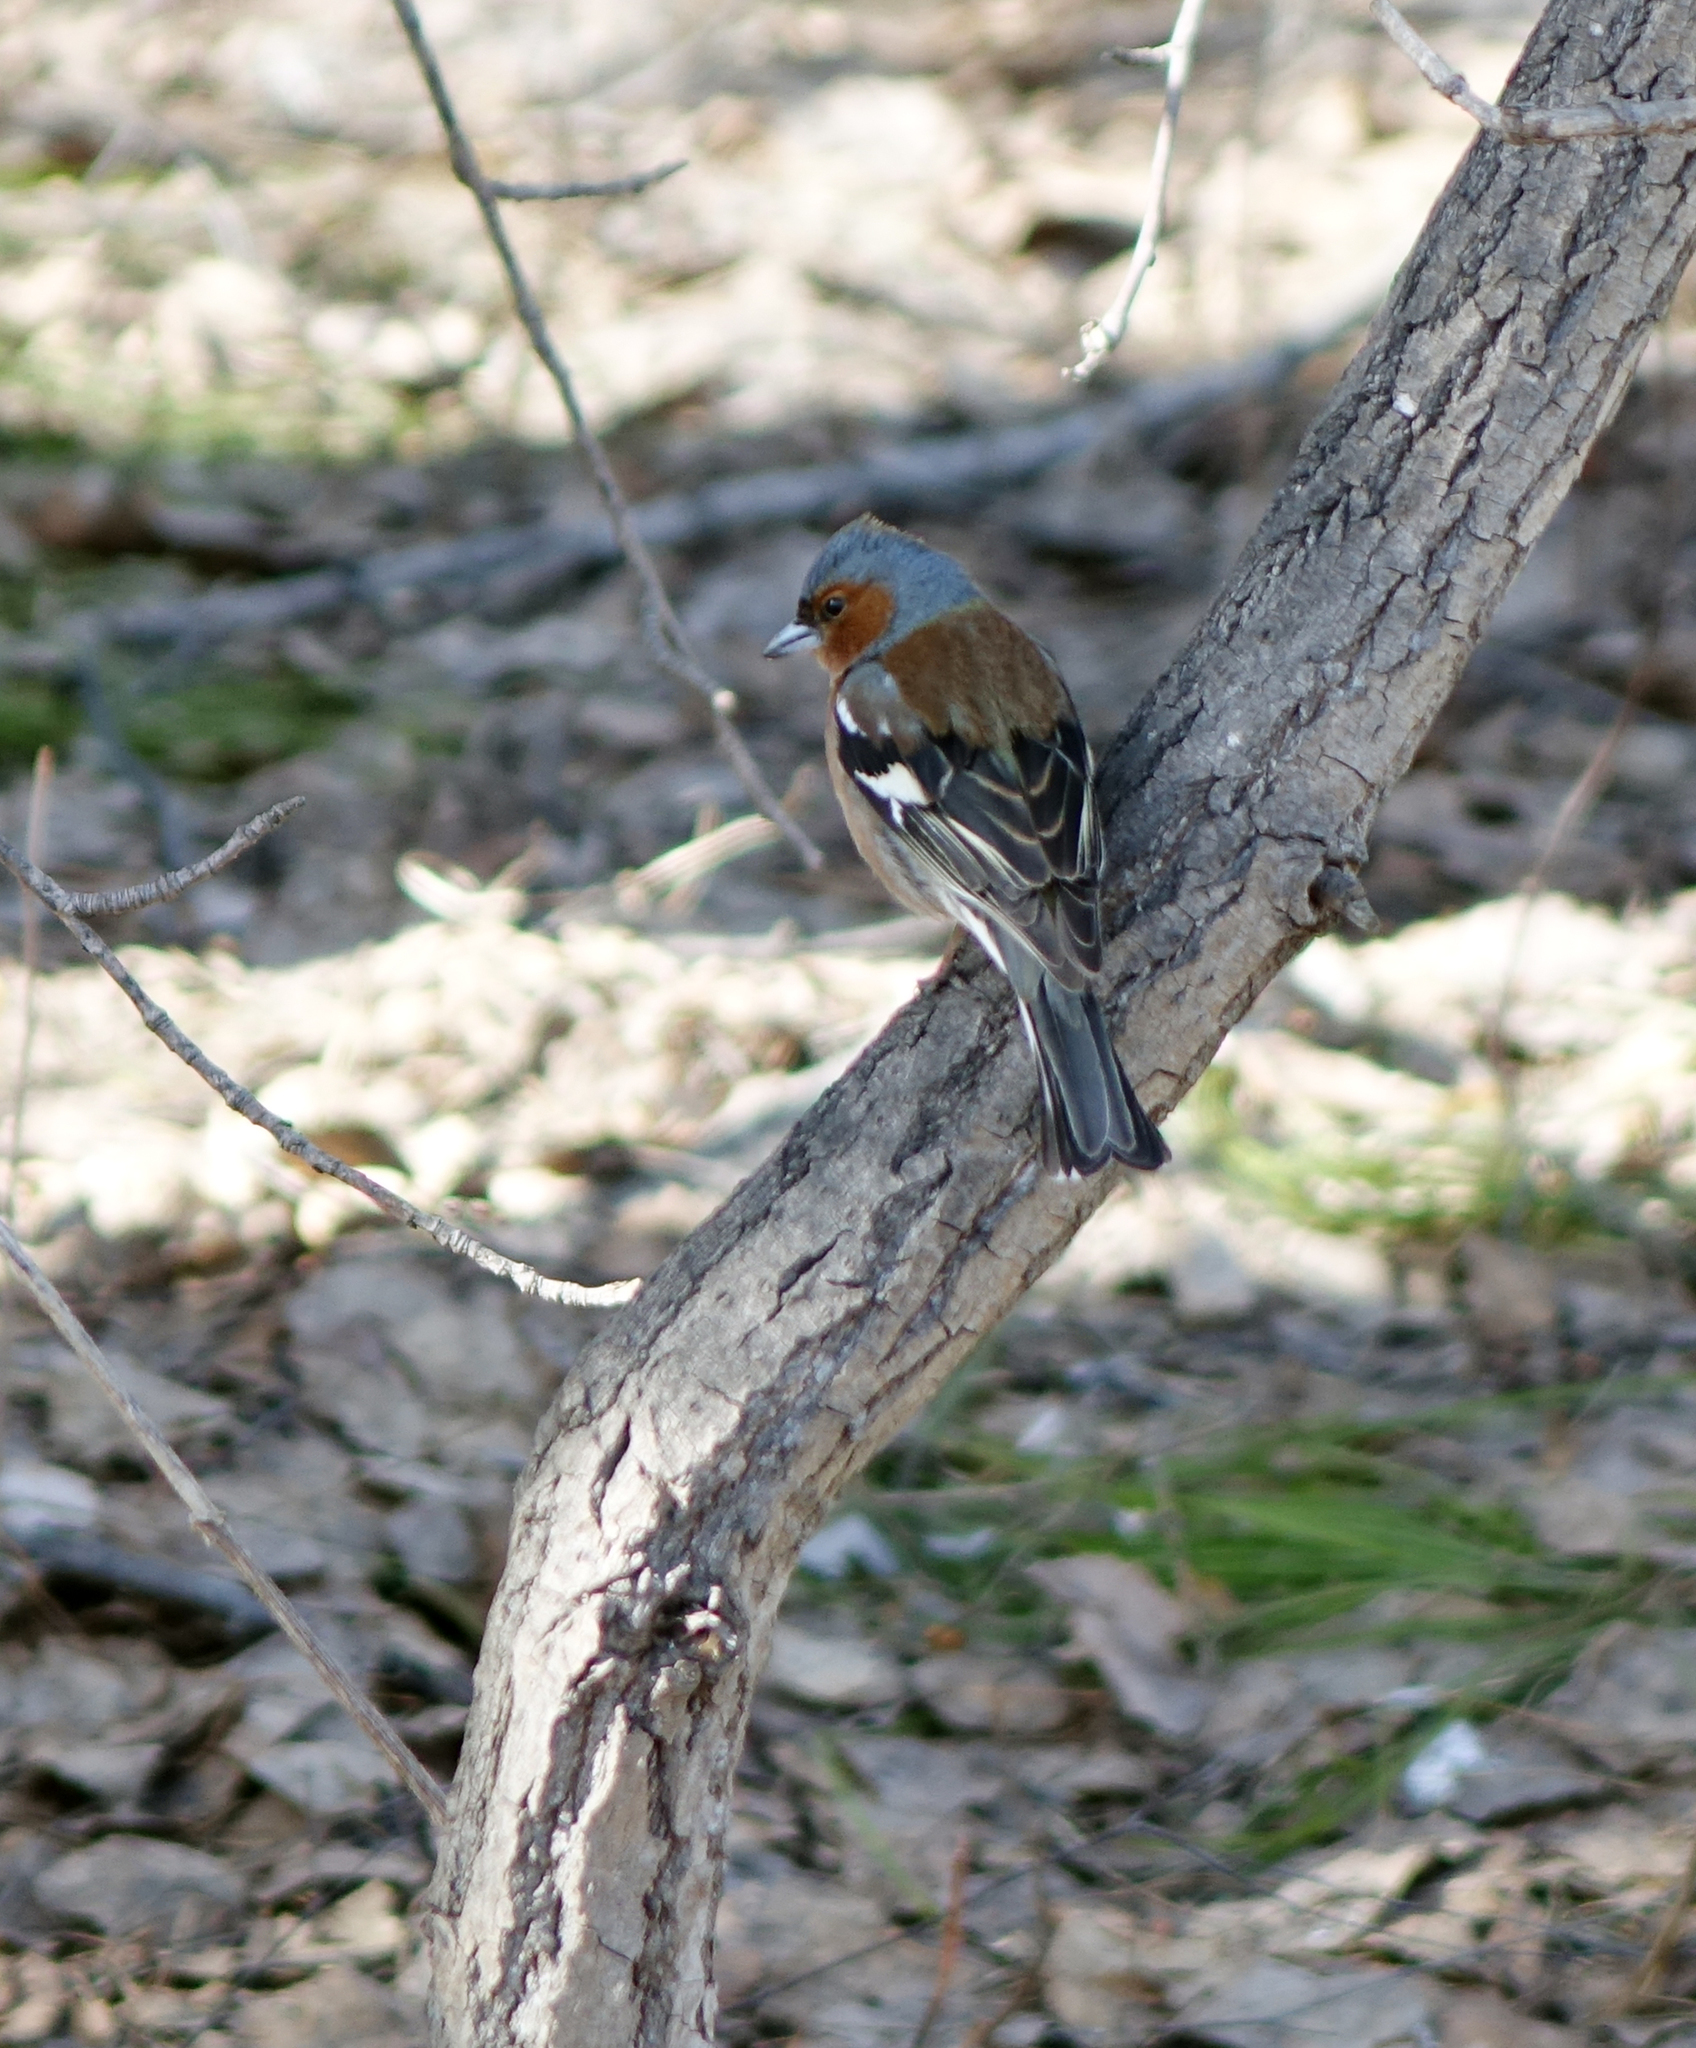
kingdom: Animalia
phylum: Chordata
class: Aves
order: Passeriformes
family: Fringillidae
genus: Fringilla
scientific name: Fringilla coelebs
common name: Common chaffinch
